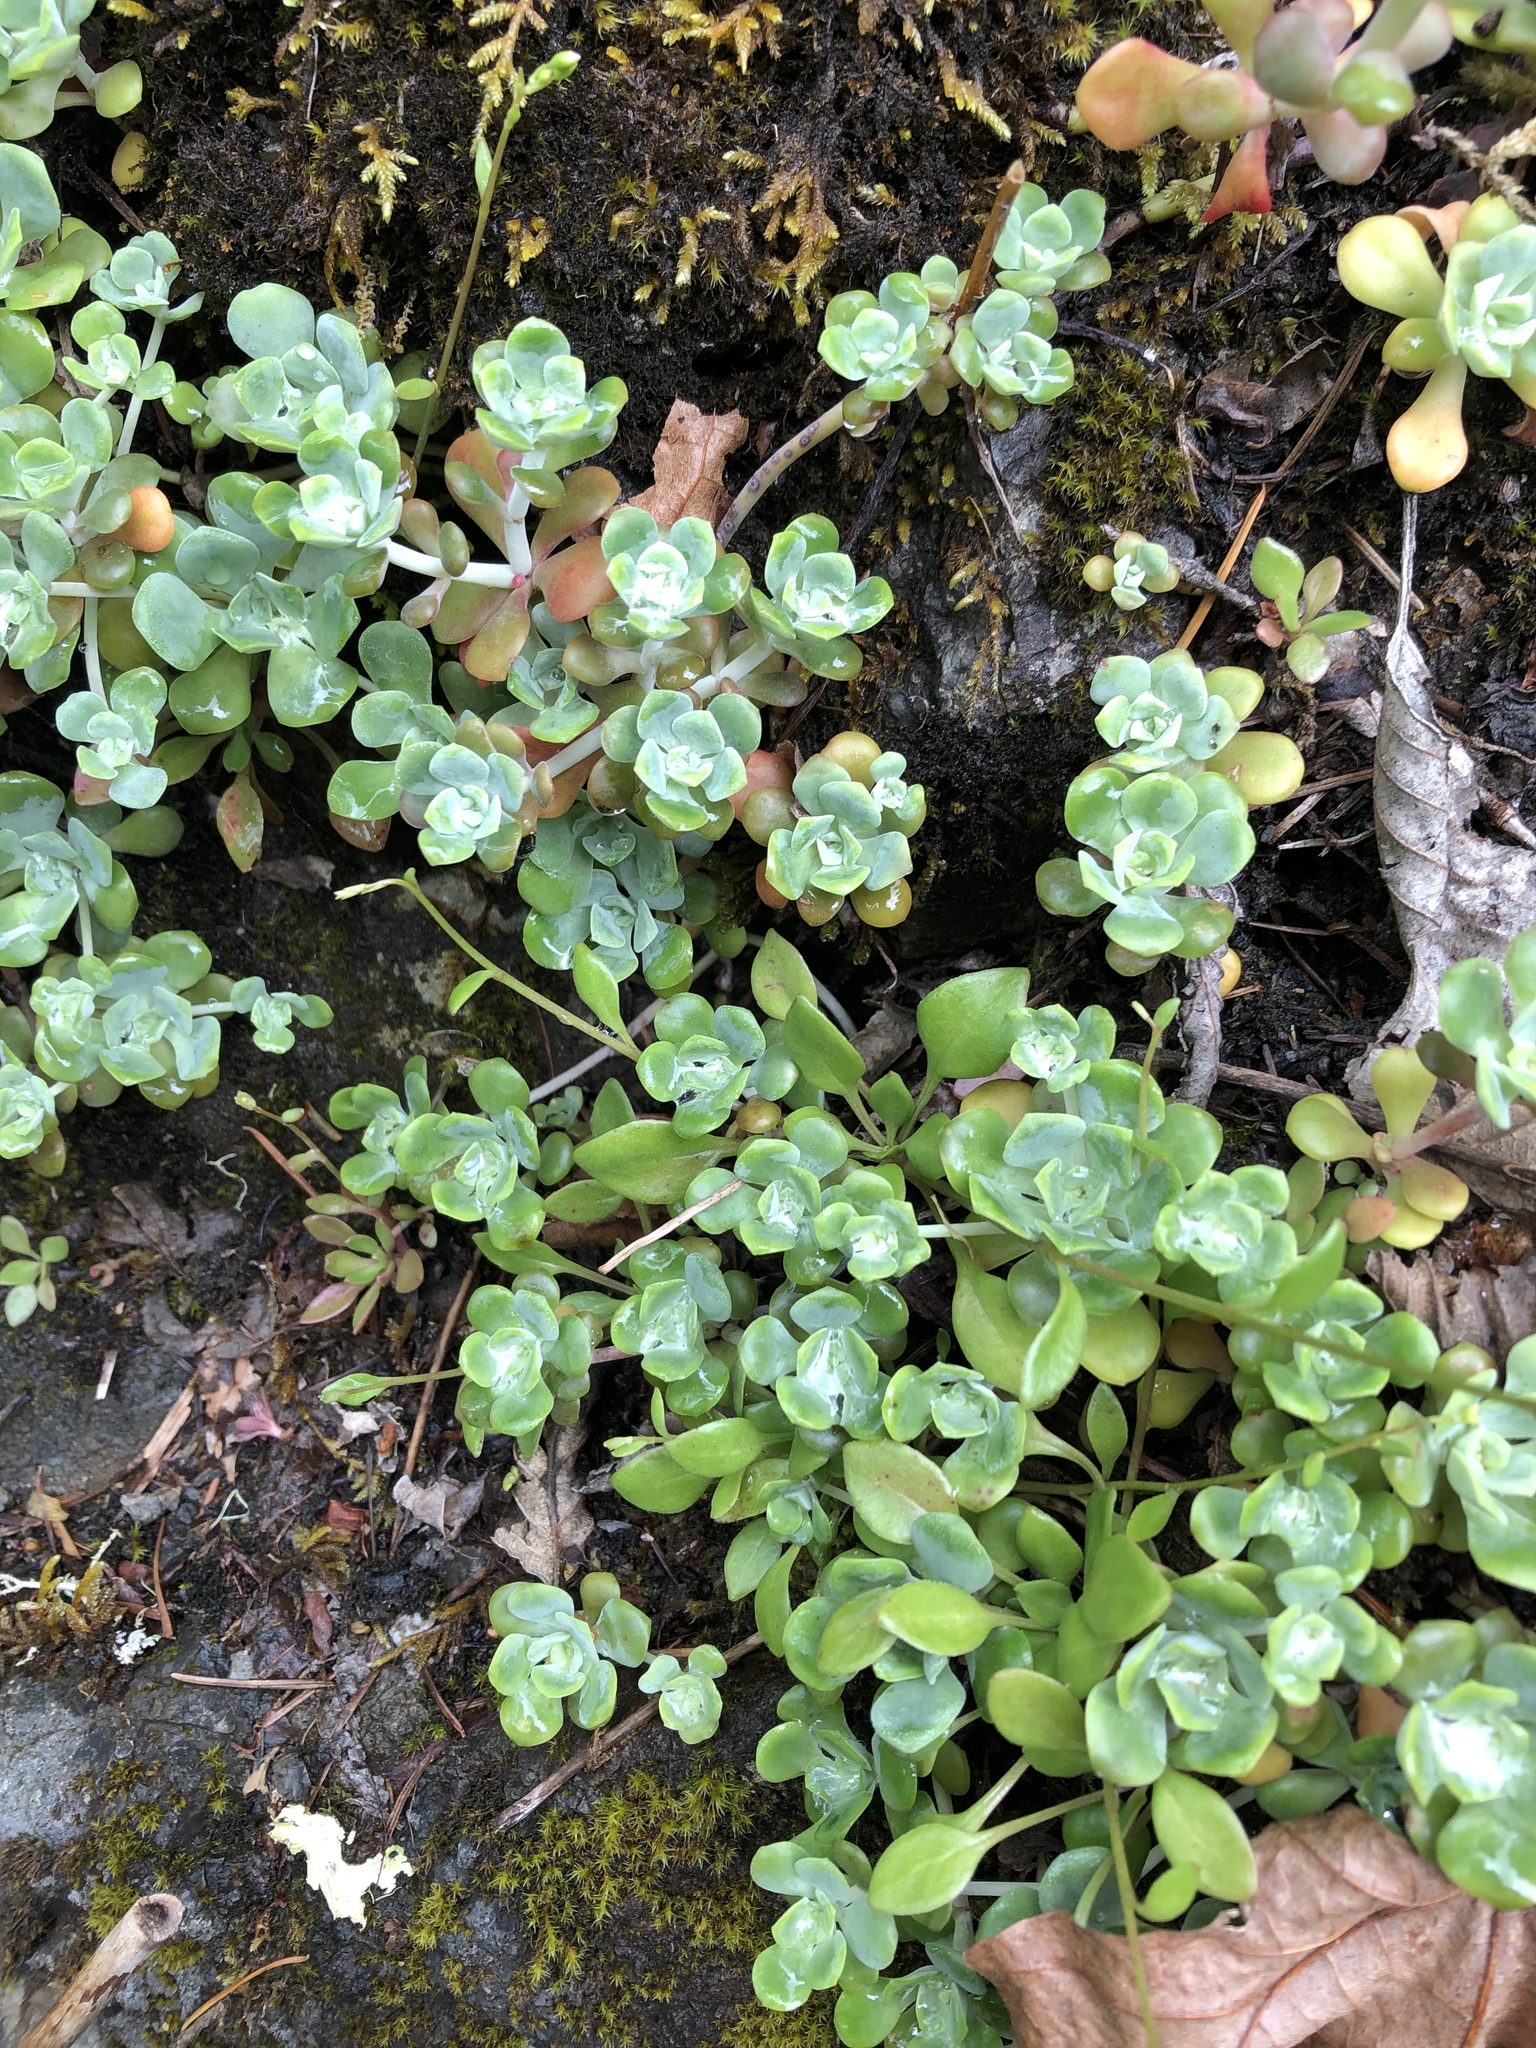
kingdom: Plantae
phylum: Tracheophyta
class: Magnoliopsida
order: Saxifragales
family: Crassulaceae
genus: Sedum
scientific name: Sedum spathulifolium
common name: Colorado stonecrop
